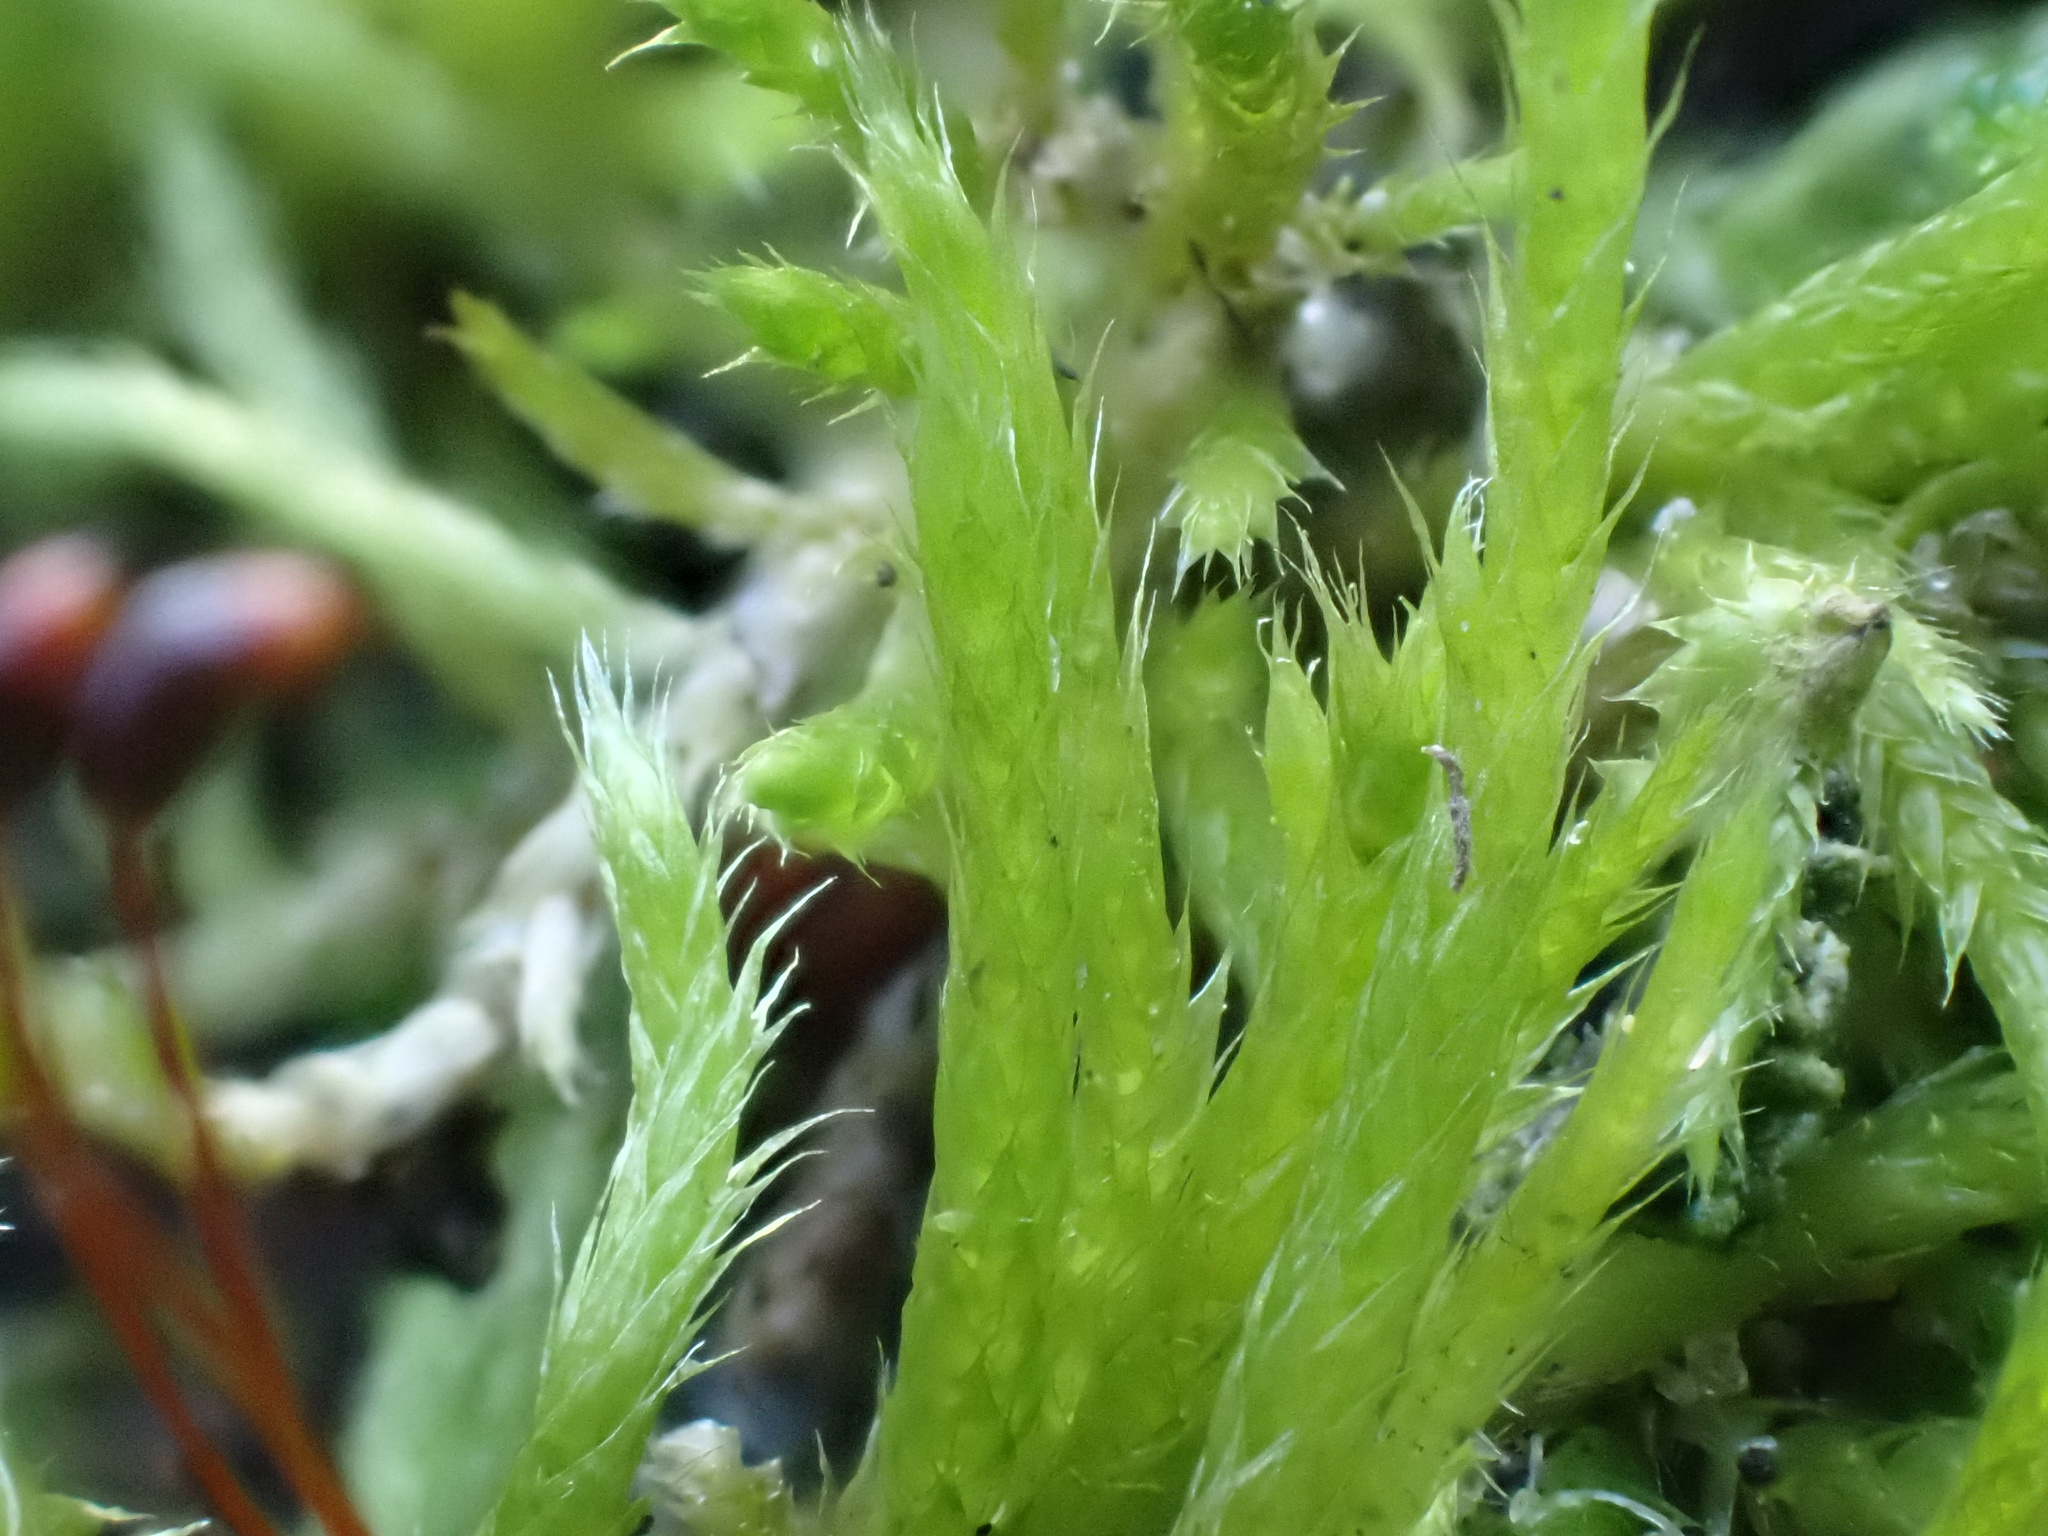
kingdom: Plantae
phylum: Bryophyta
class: Bryopsida
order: Hypnales
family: Brachytheciaceae
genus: Brachythecium
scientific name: Brachythecium albicans
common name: Whitish ragged moss
